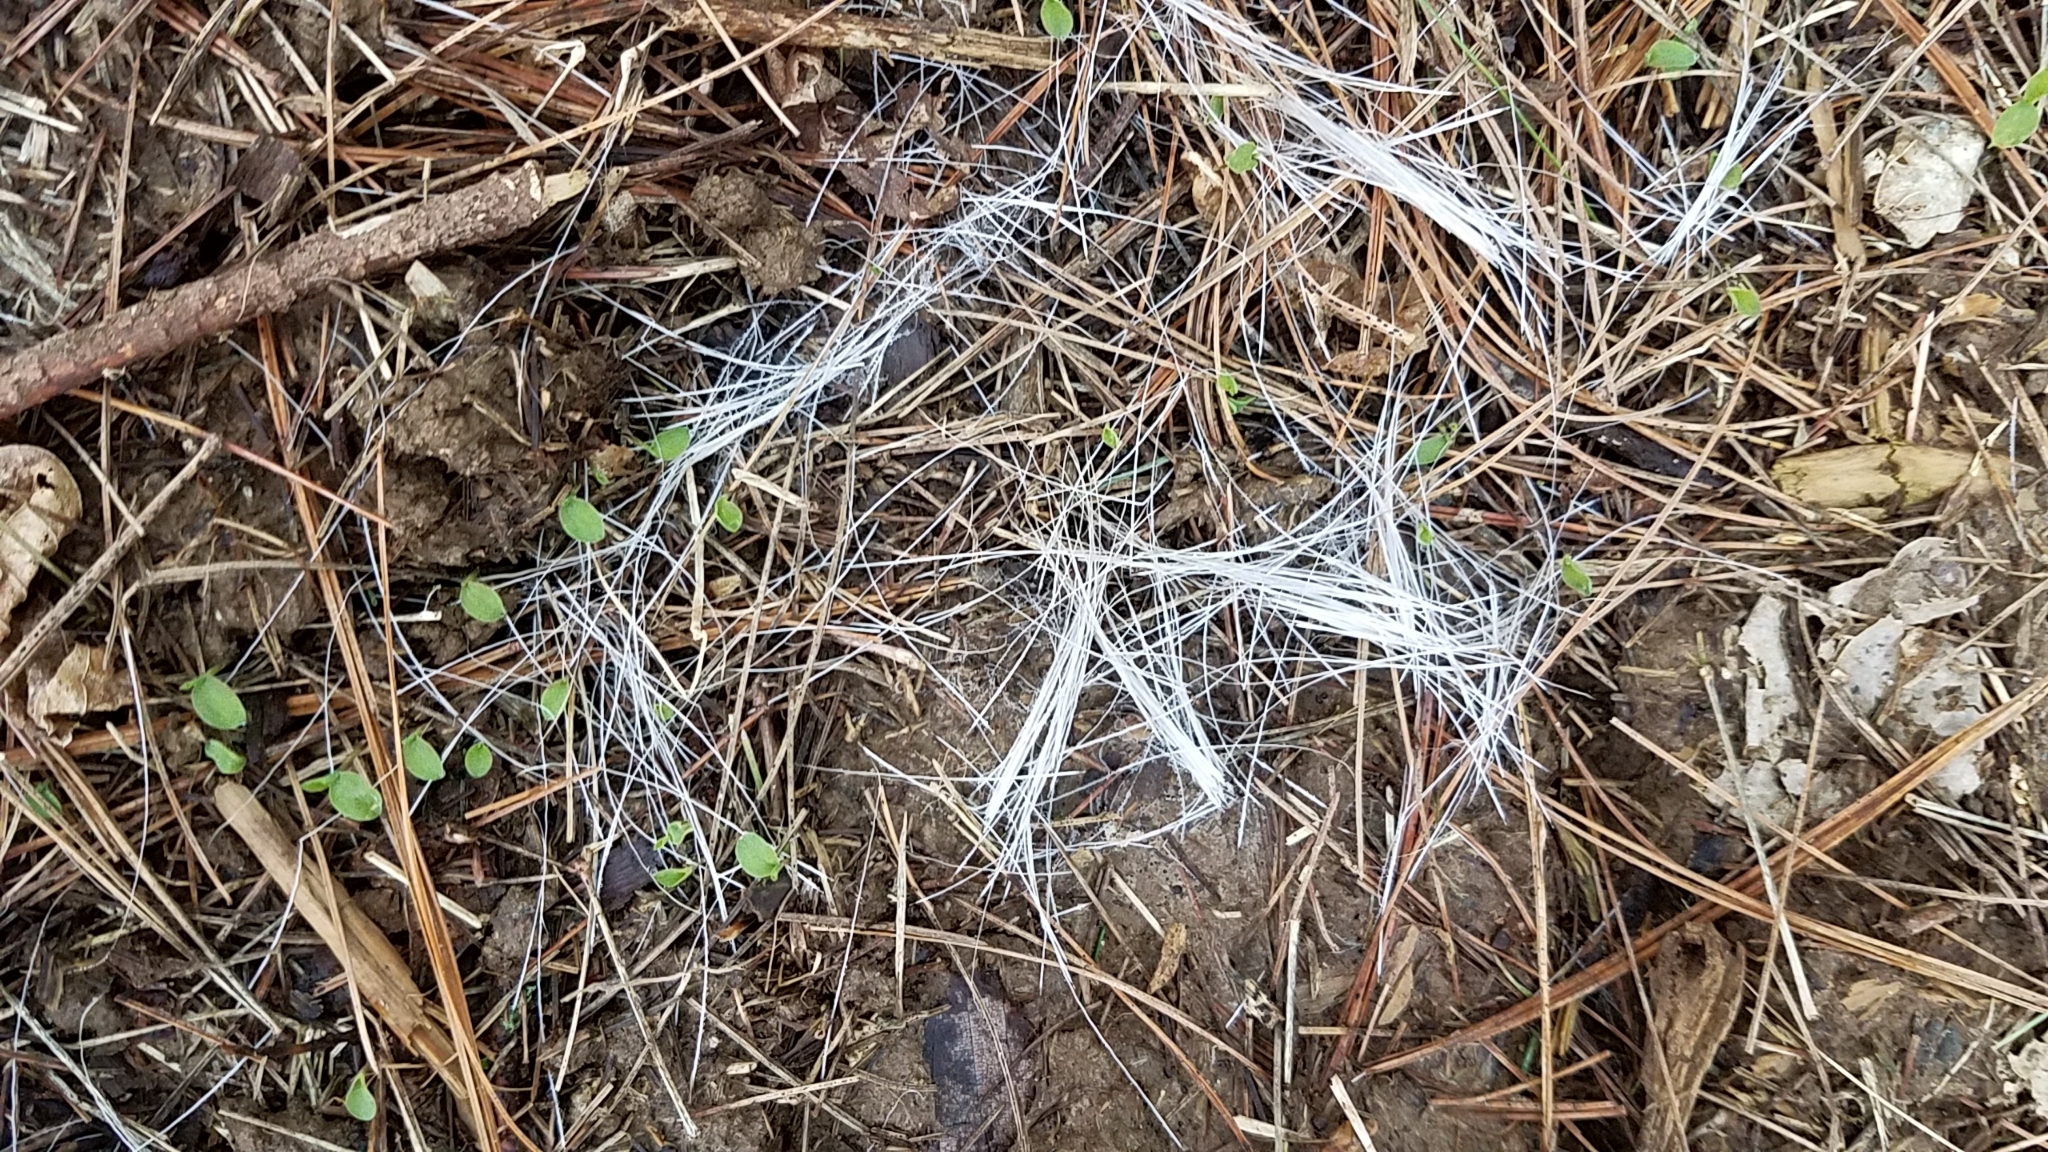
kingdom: Animalia
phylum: Chordata
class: Mammalia
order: Artiodactyla
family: Cervidae
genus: Odocoileus
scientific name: Odocoileus virginianus
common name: White-tailed deer
